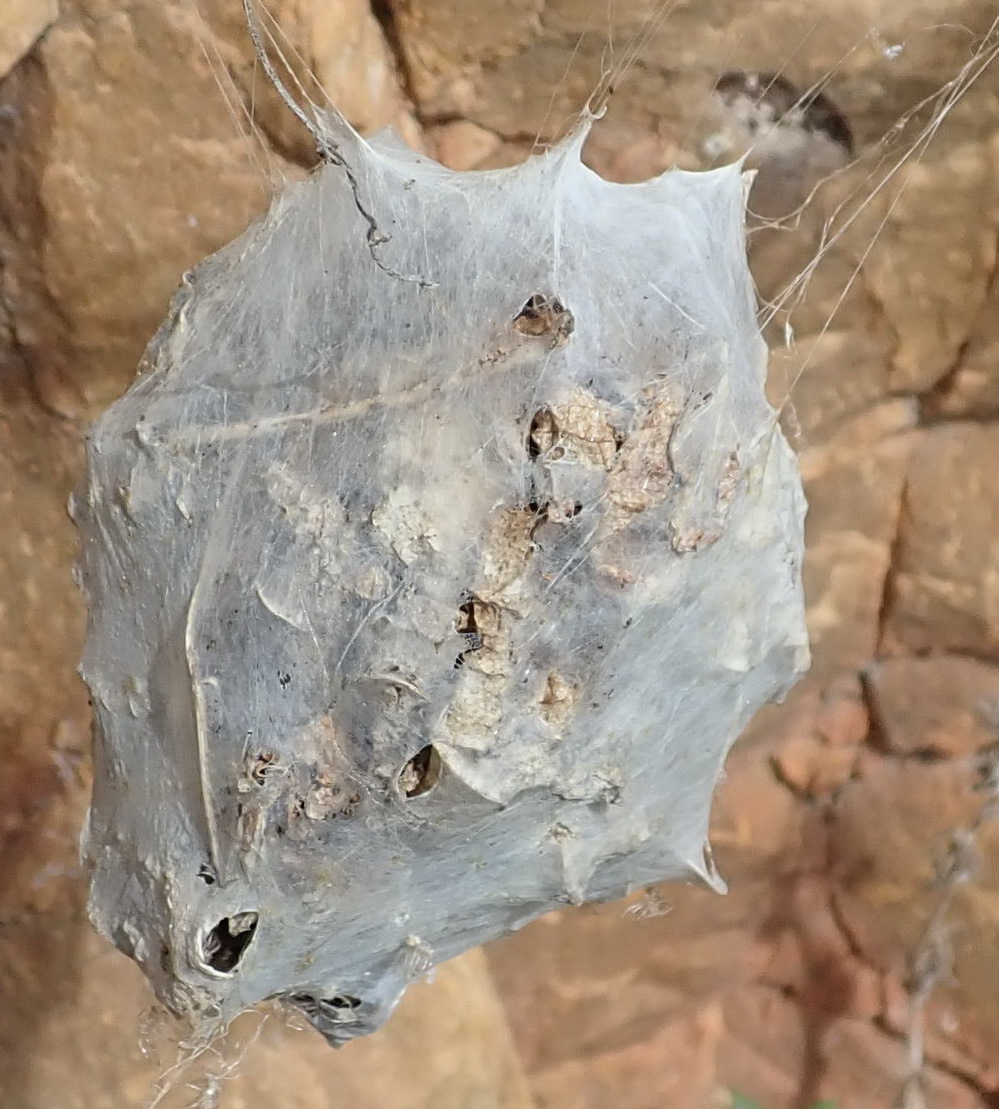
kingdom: Animalia
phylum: Arthropoda
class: Arachnida
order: Araneae
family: Sparassidae
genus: Palystes
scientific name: Palystes superciliosus
